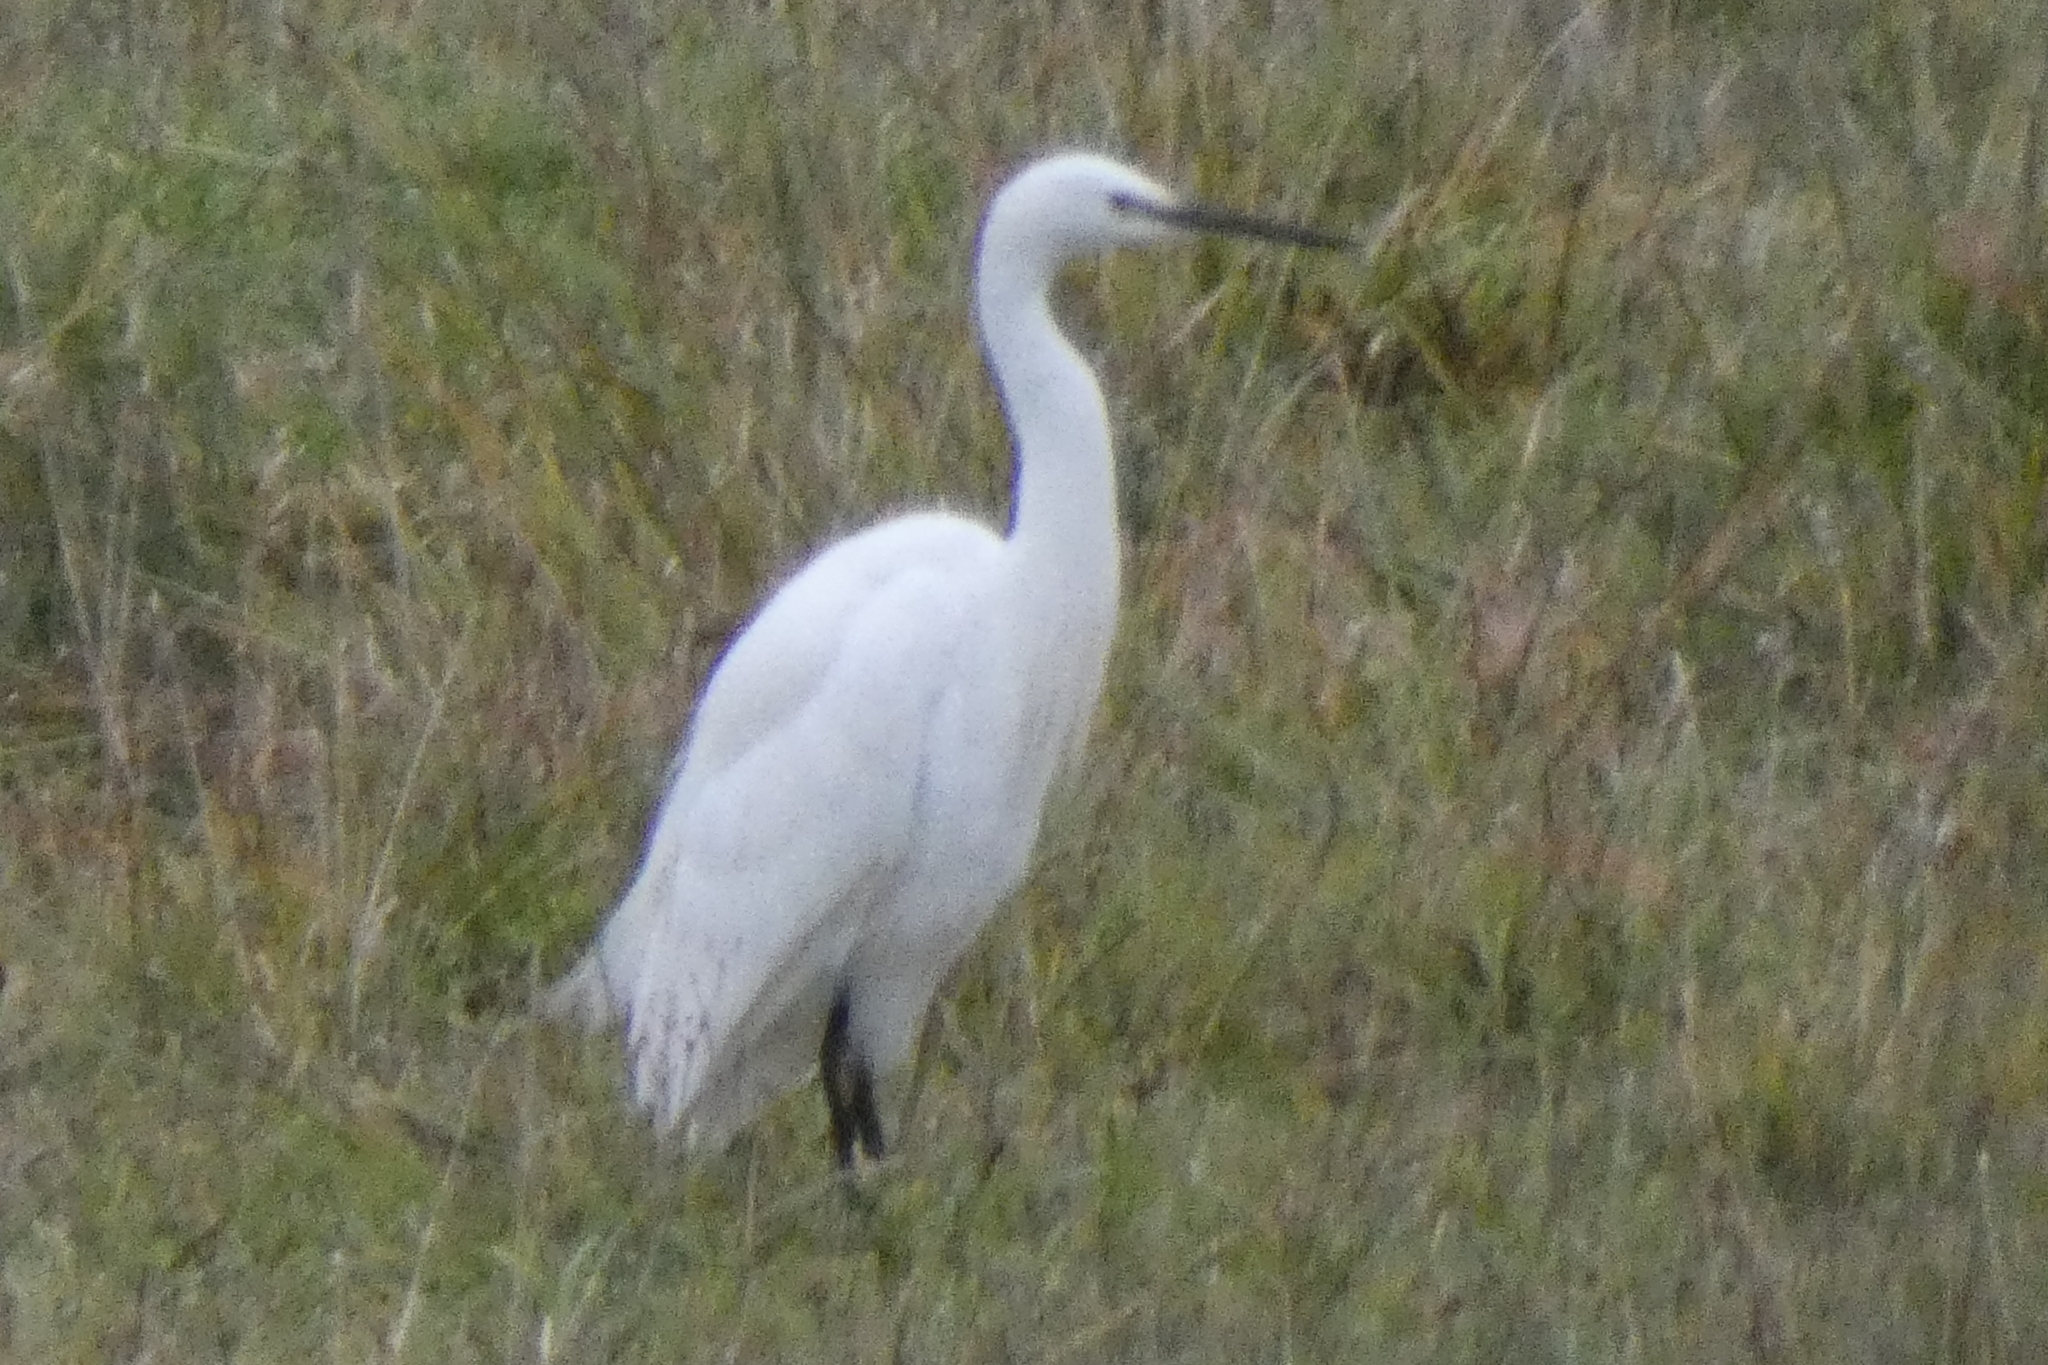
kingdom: Animalia
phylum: Chordata
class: Aves
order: Pelecaniformes
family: Ardeidae
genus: Egretta
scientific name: Egretta garzetta
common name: Little egret
